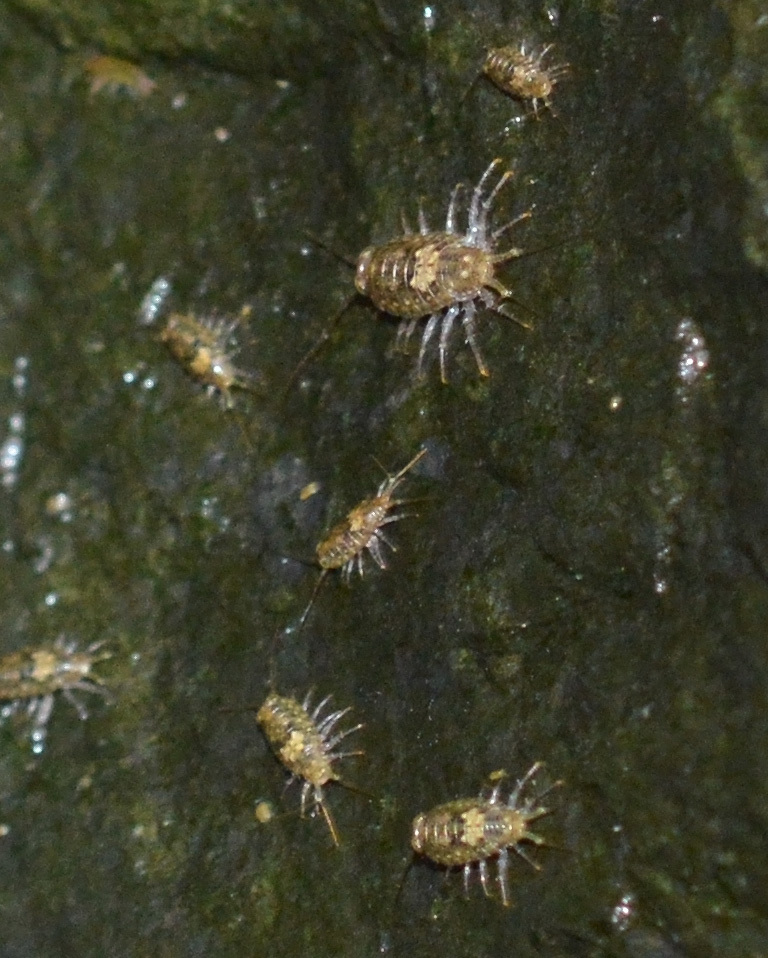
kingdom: Animalia
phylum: Arthropoda
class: Malacostraca
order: Isopoda
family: Ligiidae
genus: Ligia
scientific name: Ligia italica
